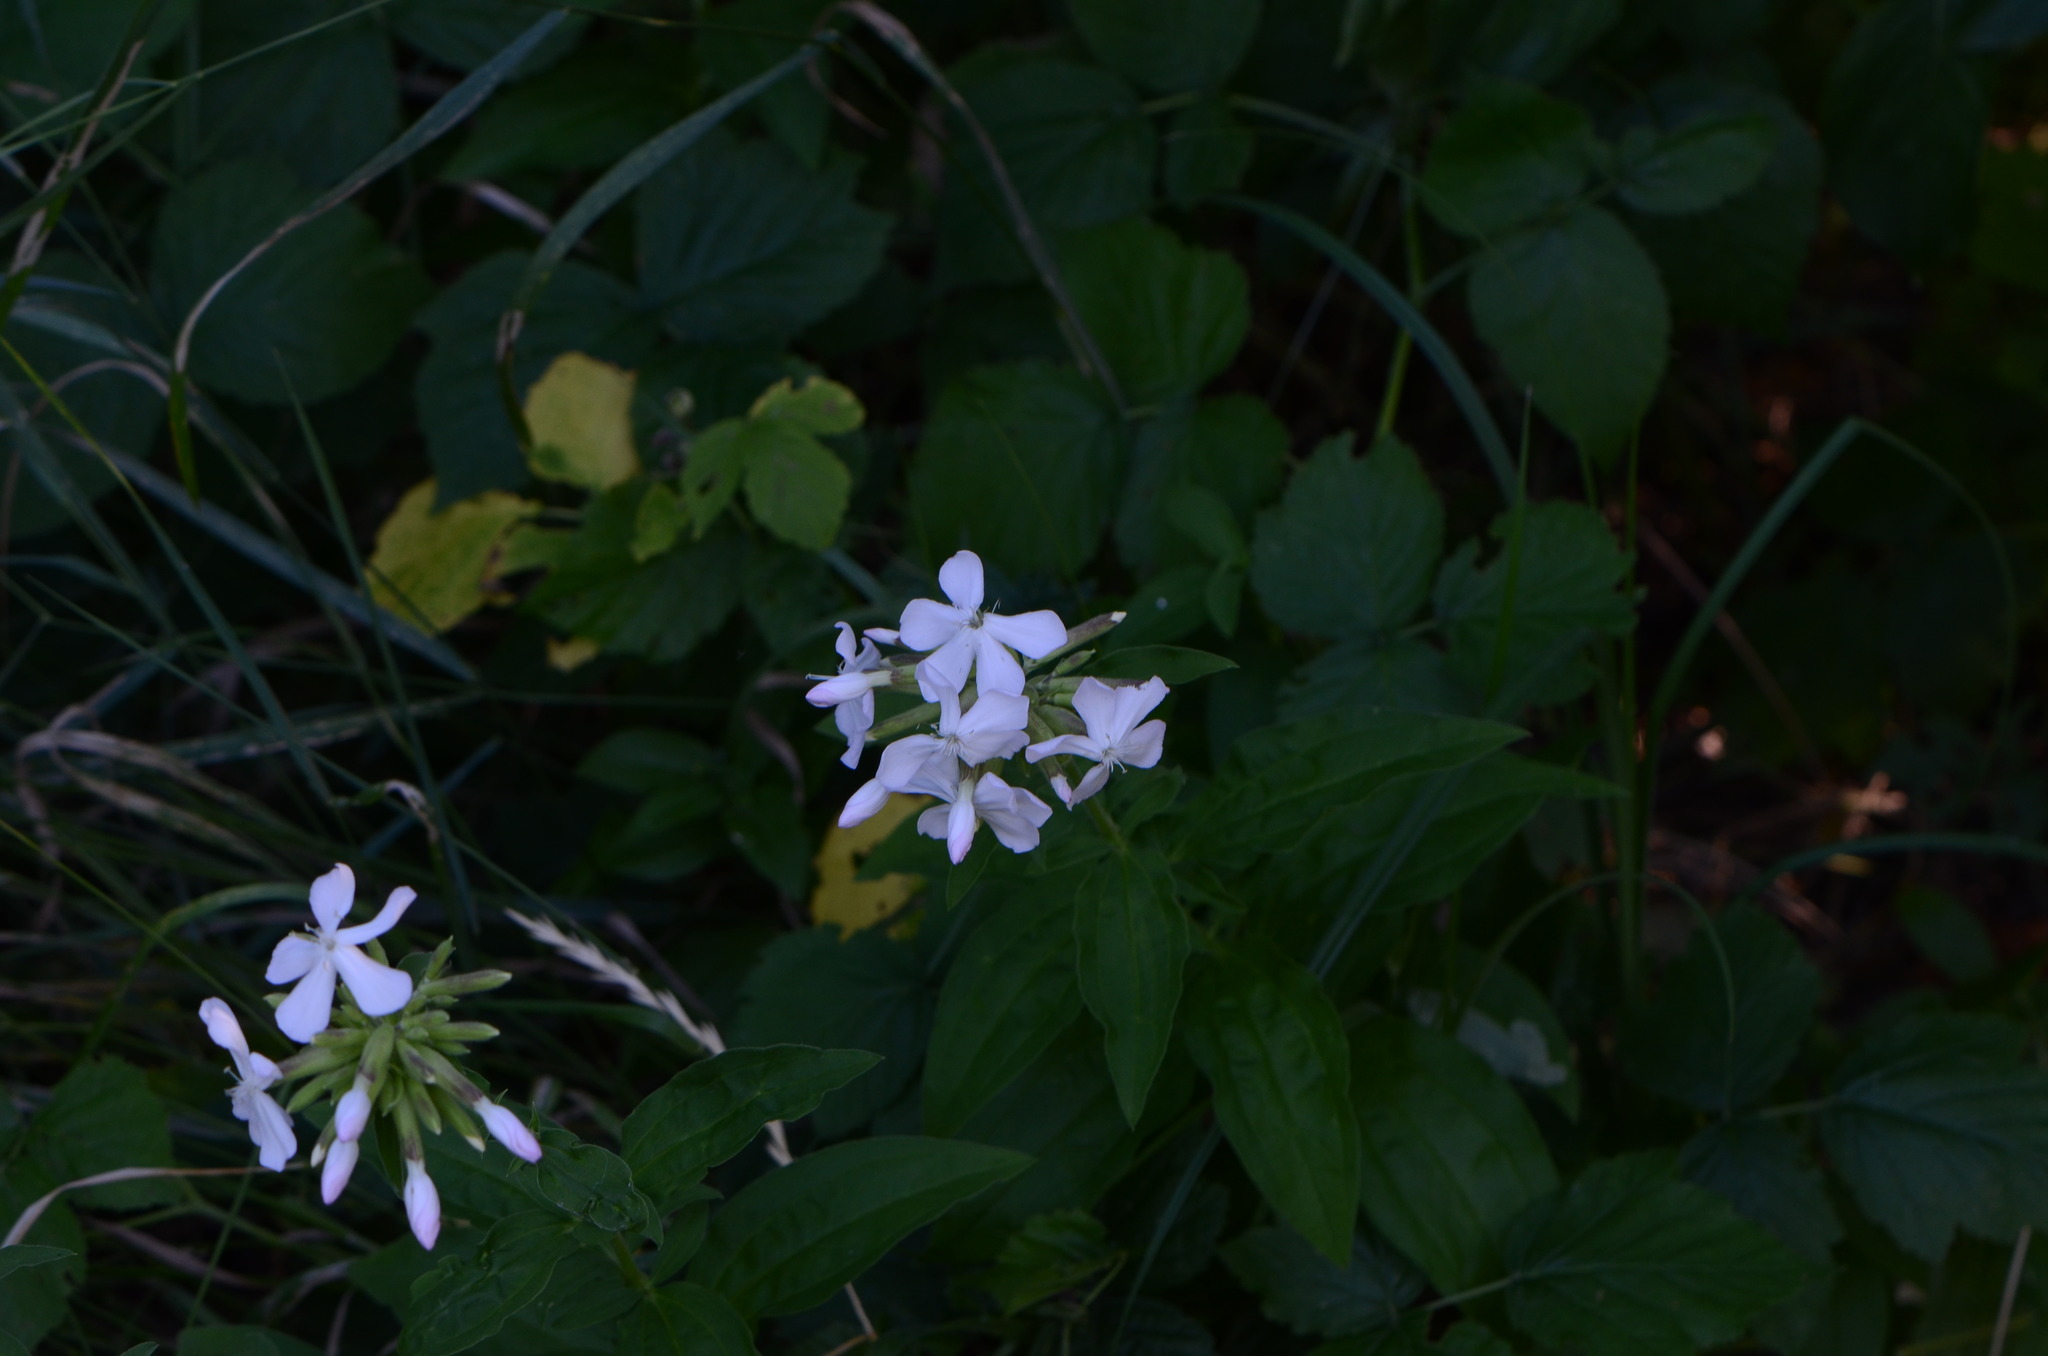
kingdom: Plantae
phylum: Tracheophyta
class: Magnoliopsida
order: Caryophyllales
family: Caryophyllaceae
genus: Saponaria
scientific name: Saponaria officinalis
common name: Soapwort
